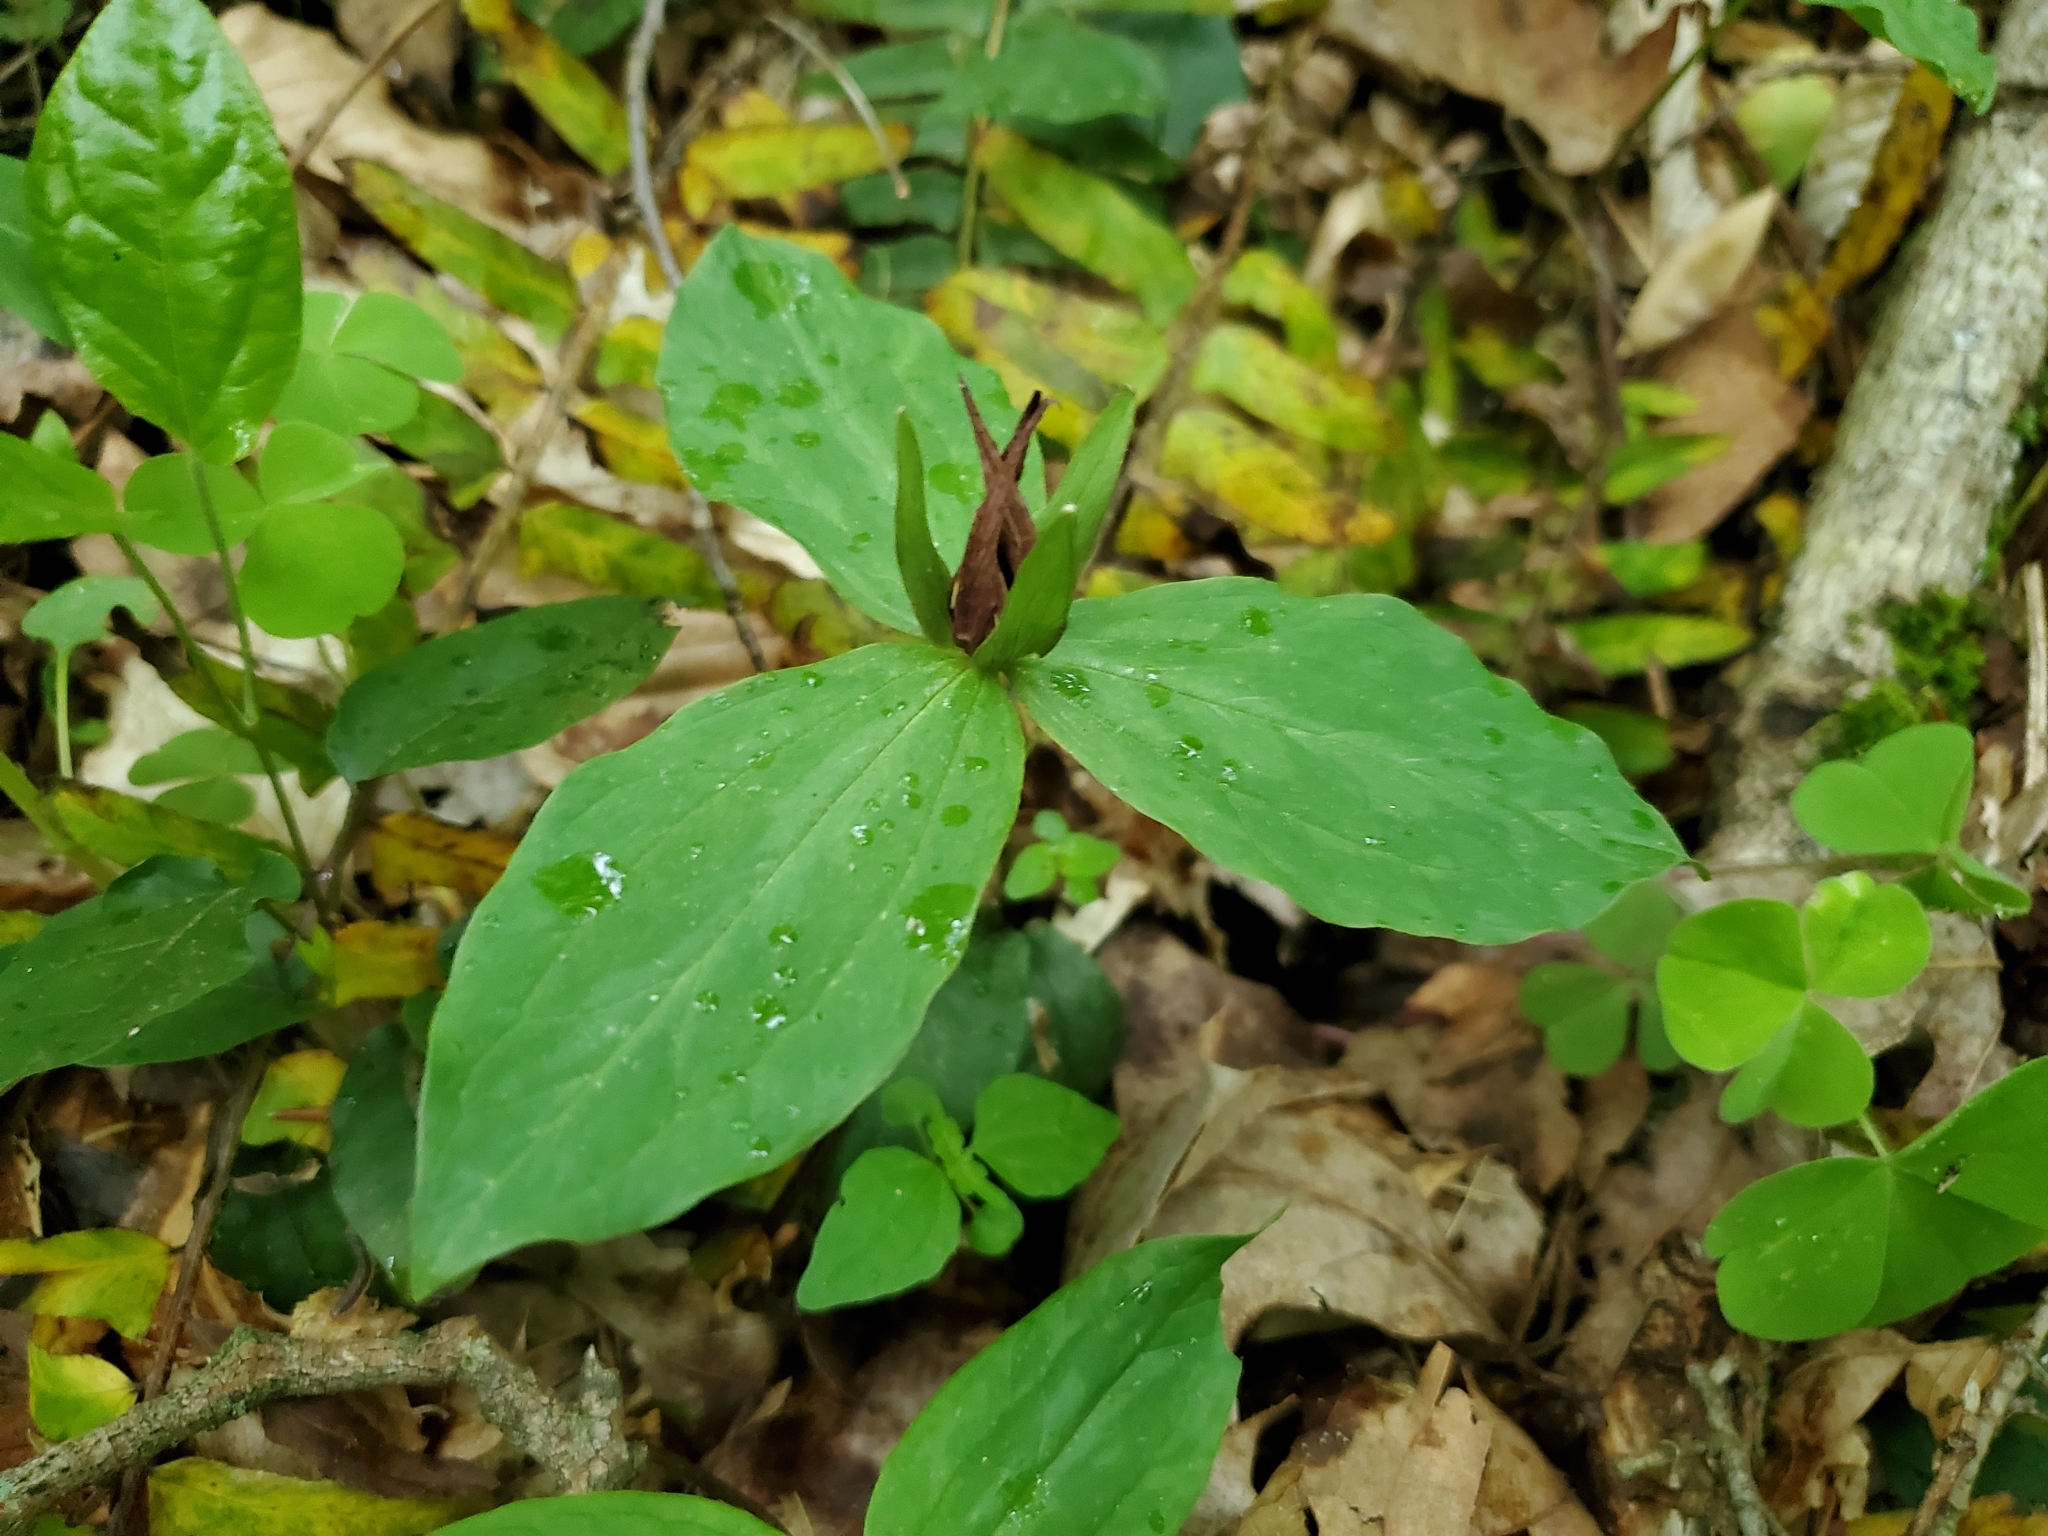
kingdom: Plantae
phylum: Tracheophyta
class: Liliopsida
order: Liliales
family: Melanthiaceae
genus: Trillium
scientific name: Trillium sessile
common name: Sessile trillium
